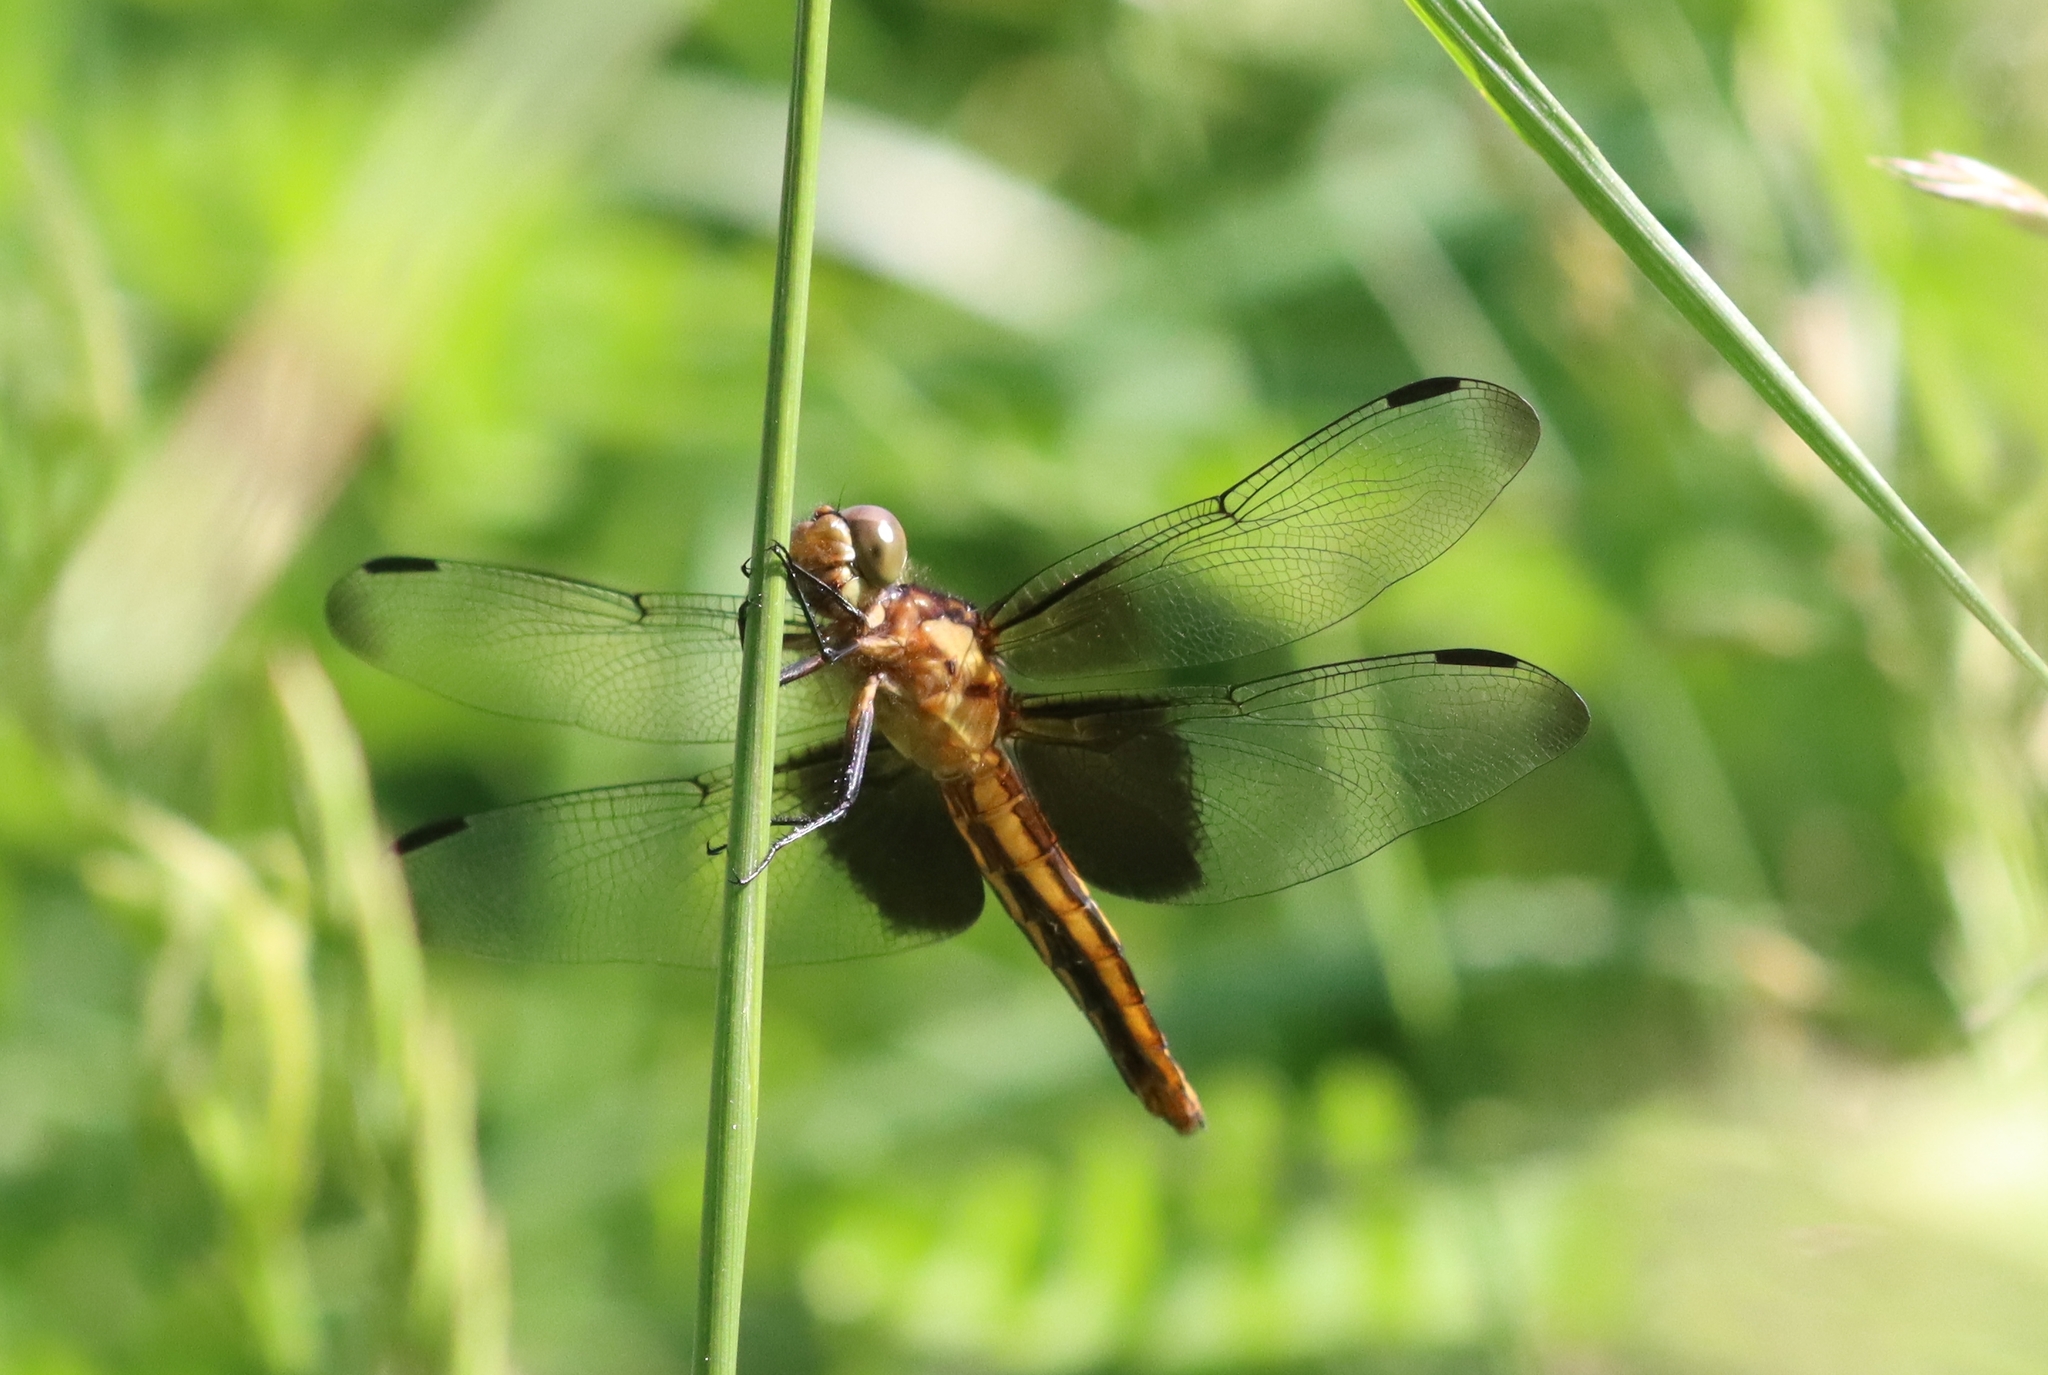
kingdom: Animalia
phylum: Arthropoda
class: Insecta
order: Odonata
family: Libellulidae
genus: Libellula
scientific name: Libellula luctuosa
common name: Widow skimmer
